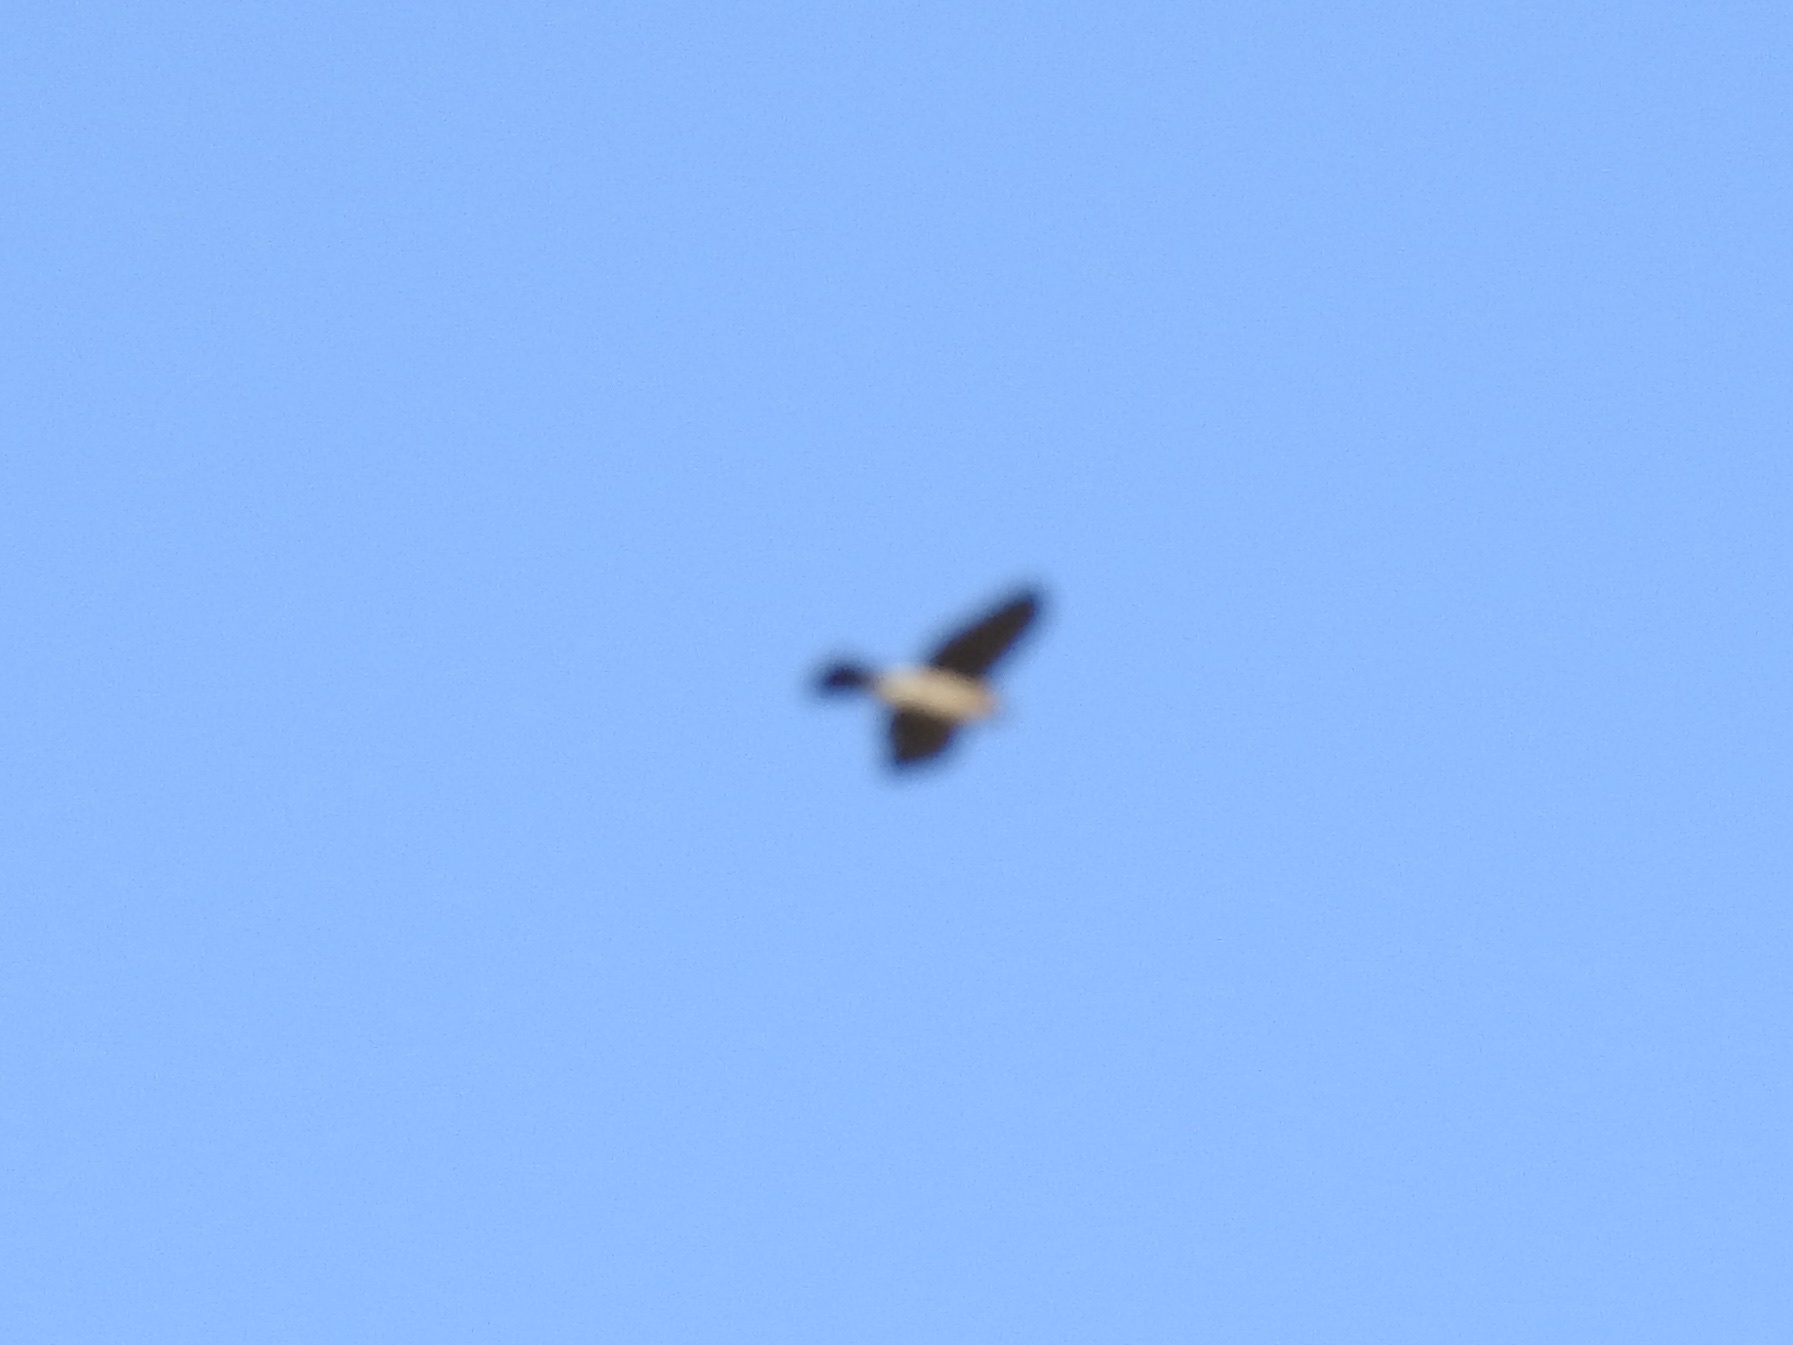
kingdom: Animalia
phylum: Chordata
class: Aves
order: Accipitriformes
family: Accipitridae
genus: Accipiter
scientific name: Accipiter striatus
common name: Sharp-shinned hawk
